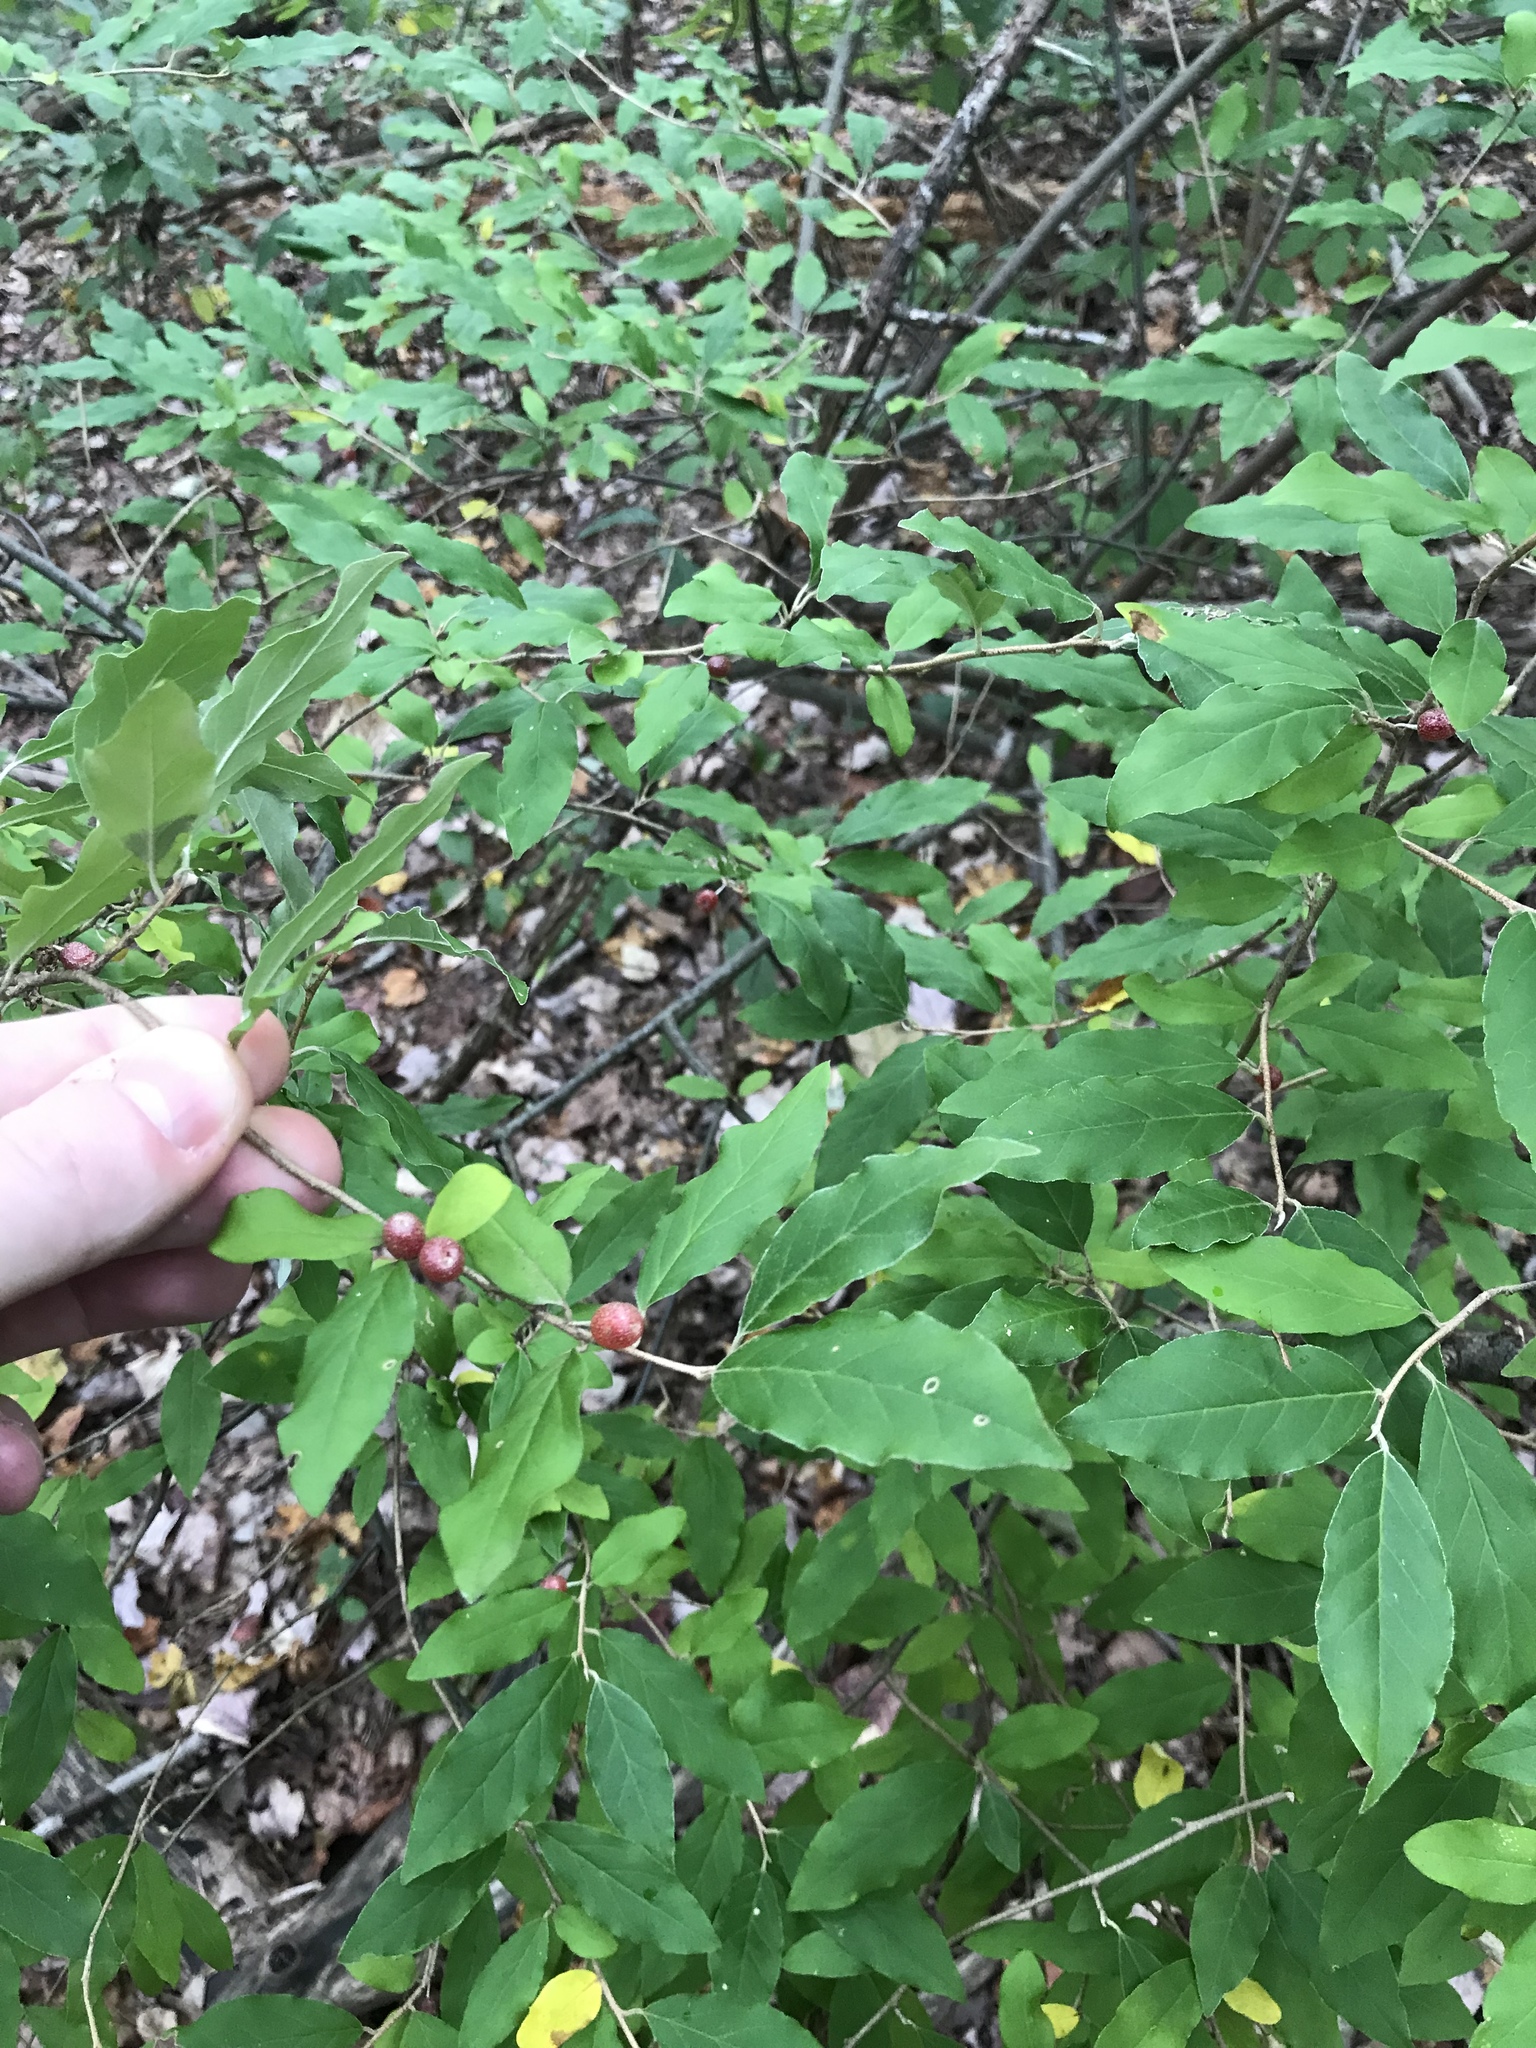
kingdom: Plantae
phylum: Tracheophyta
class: Magnoliopsida
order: Rosales
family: Elaeagnaceae
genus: Elaeagnus
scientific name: Elaeagnus umbellata
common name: Autumn olive
